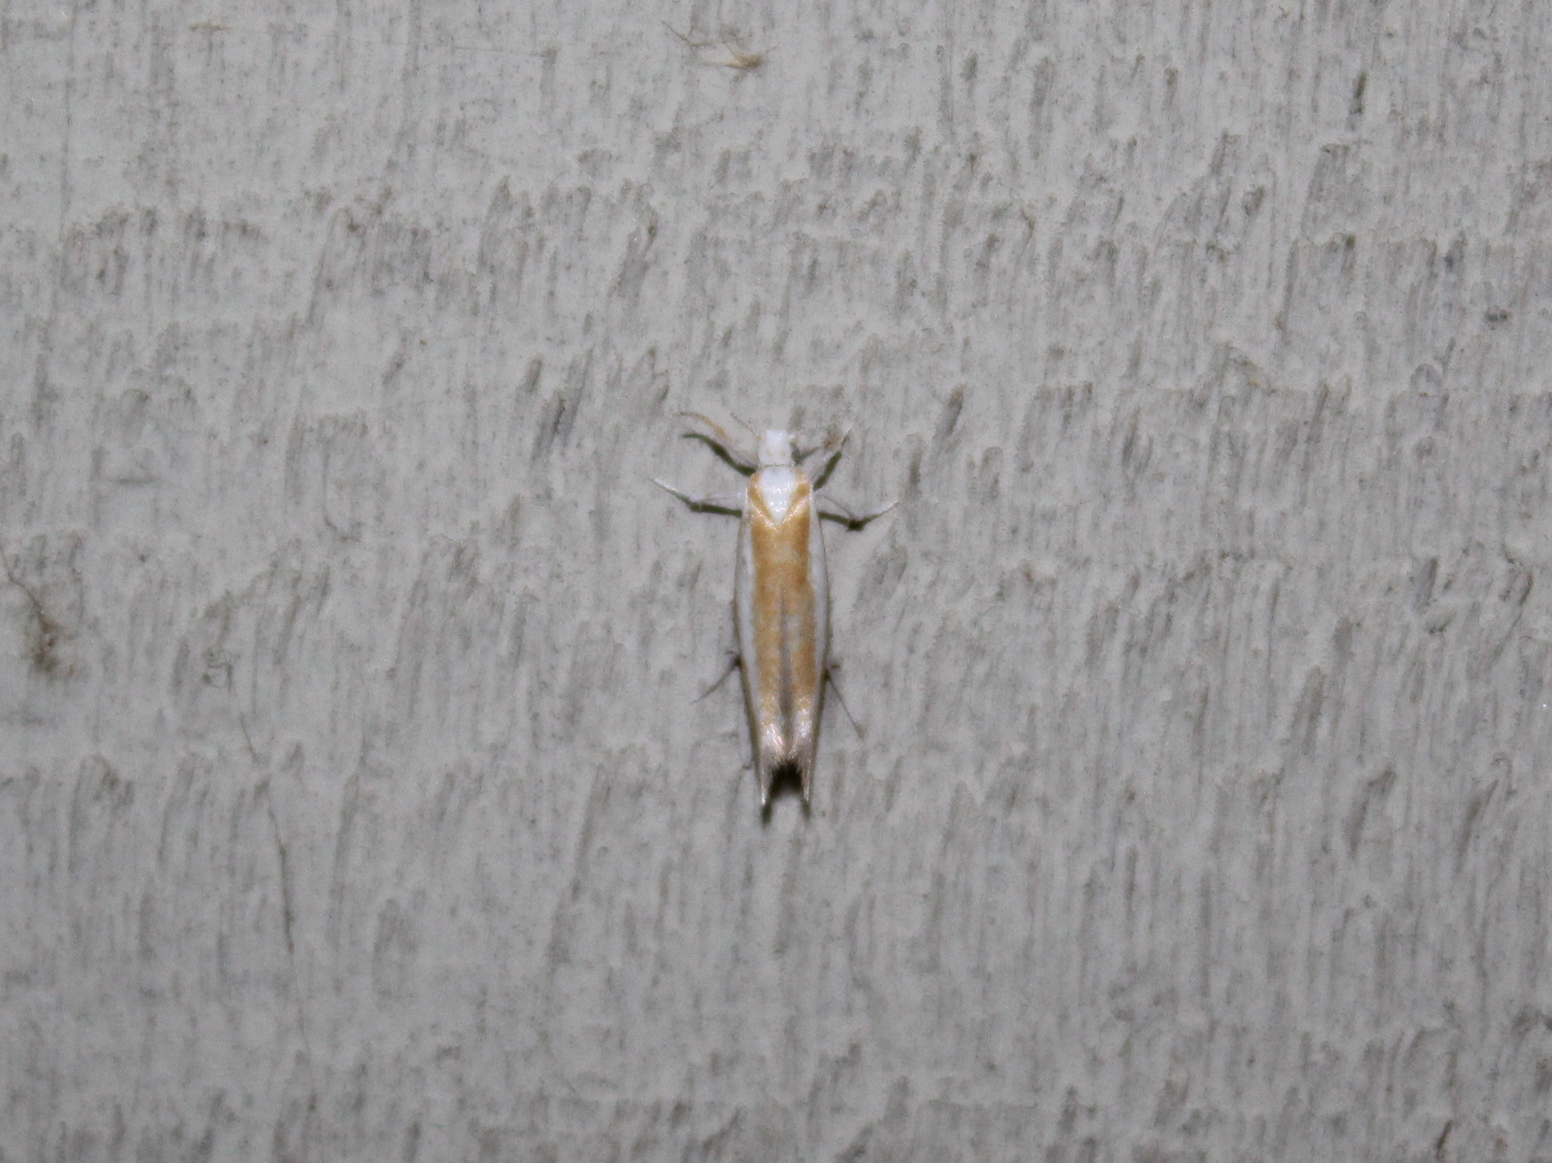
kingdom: Animalia
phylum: Arthropoda
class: Insecta
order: Lepidoptera
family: Yponomeutidae
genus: Zelleria
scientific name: Zelleria haimbachi
